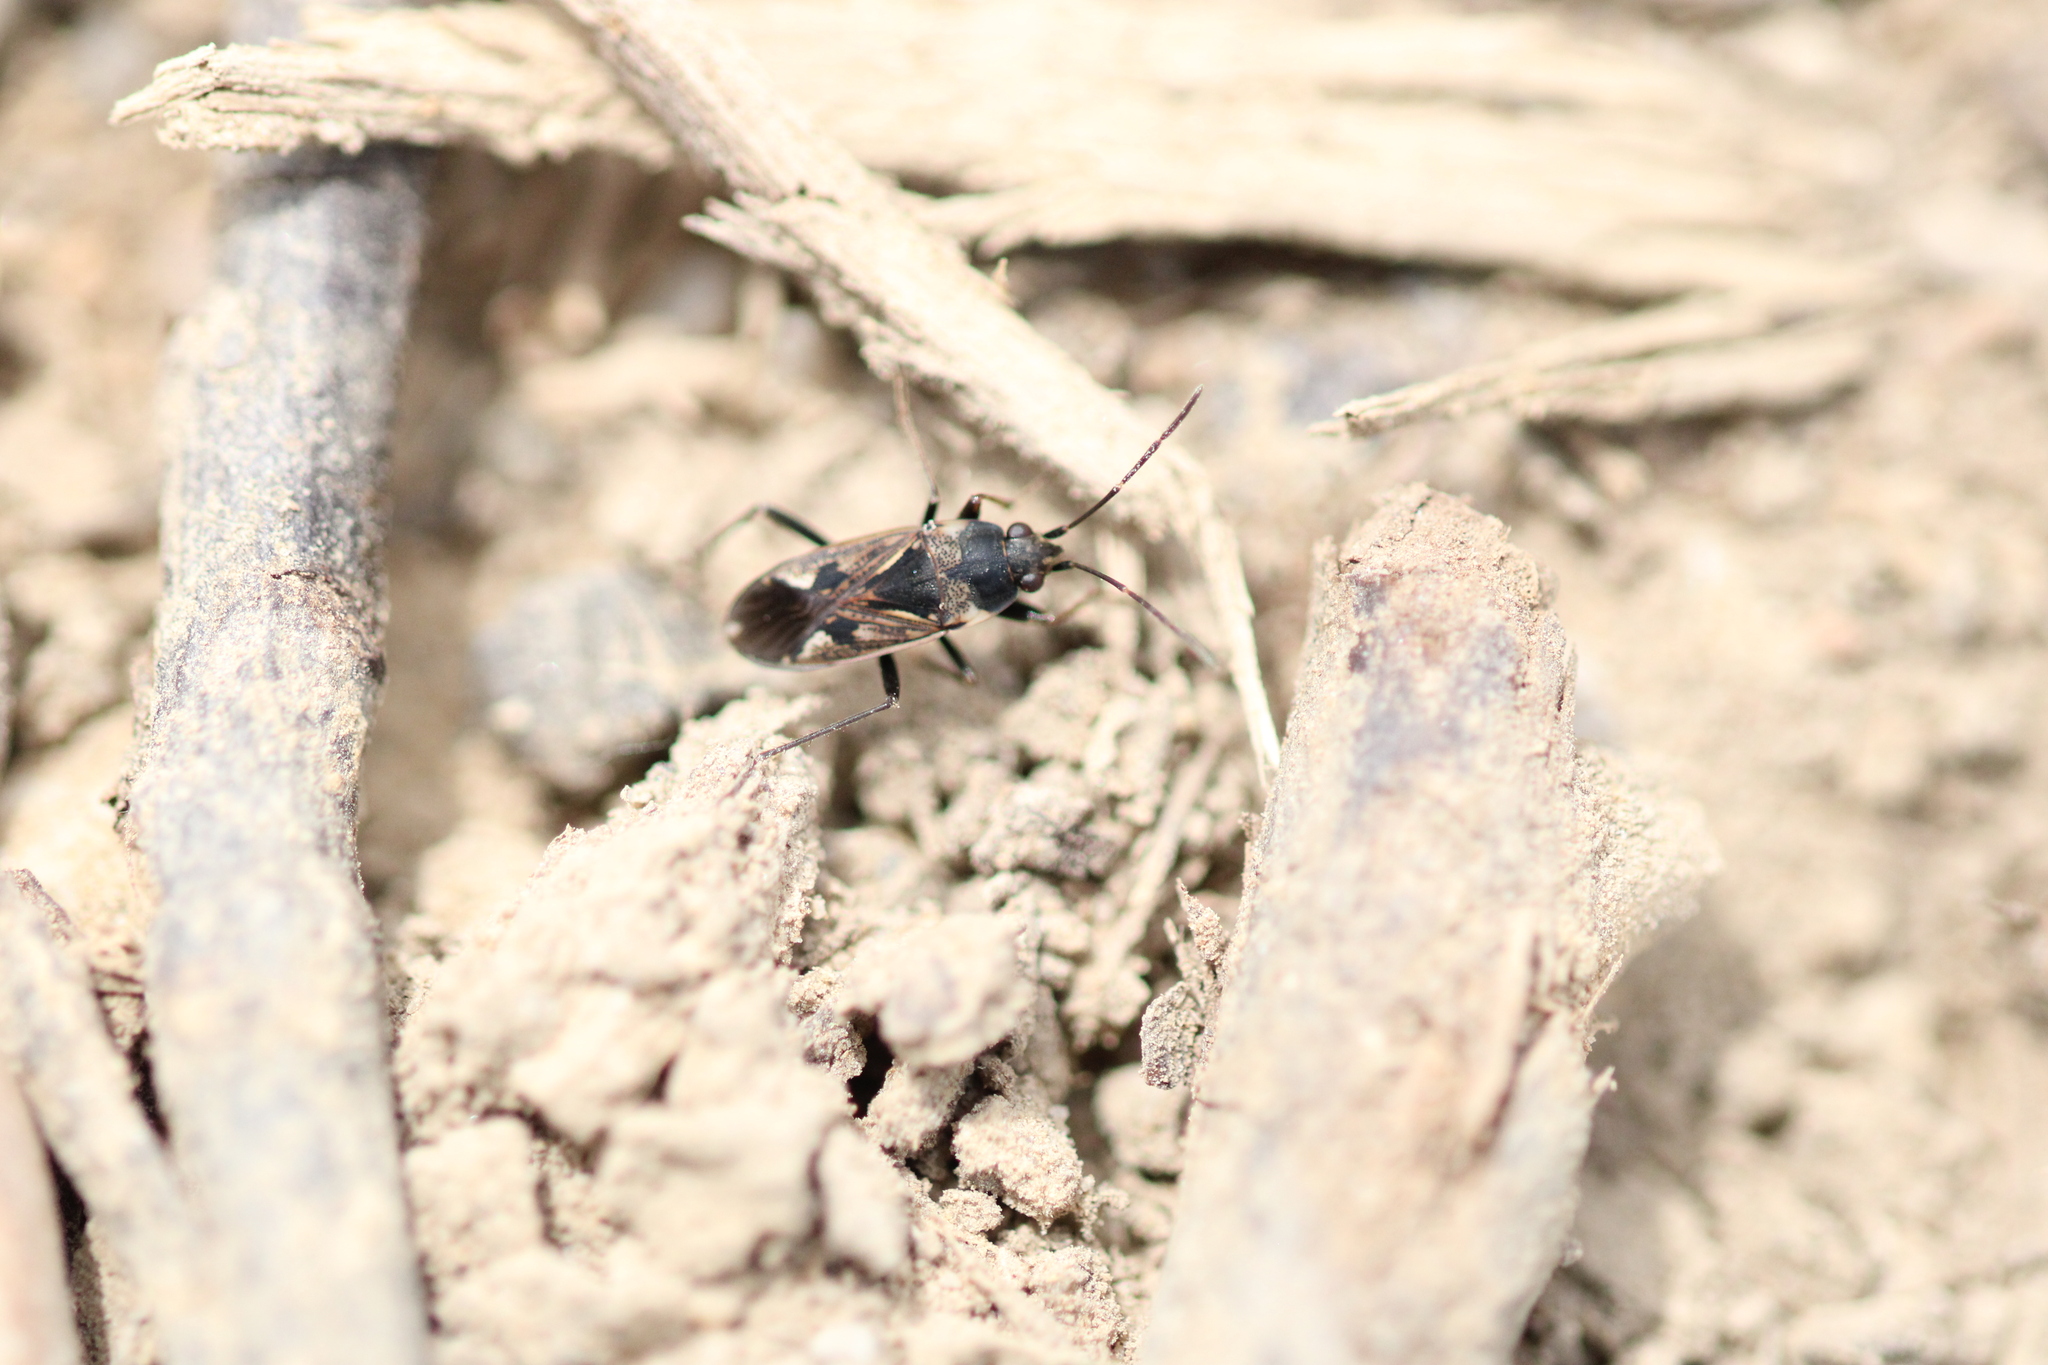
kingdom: Animalia
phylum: Arthropoda
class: Insecta
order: Hemiptera
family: Rhyparochromidae
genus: Rhyparochromus
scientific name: Rhyparochromus vulgaris
